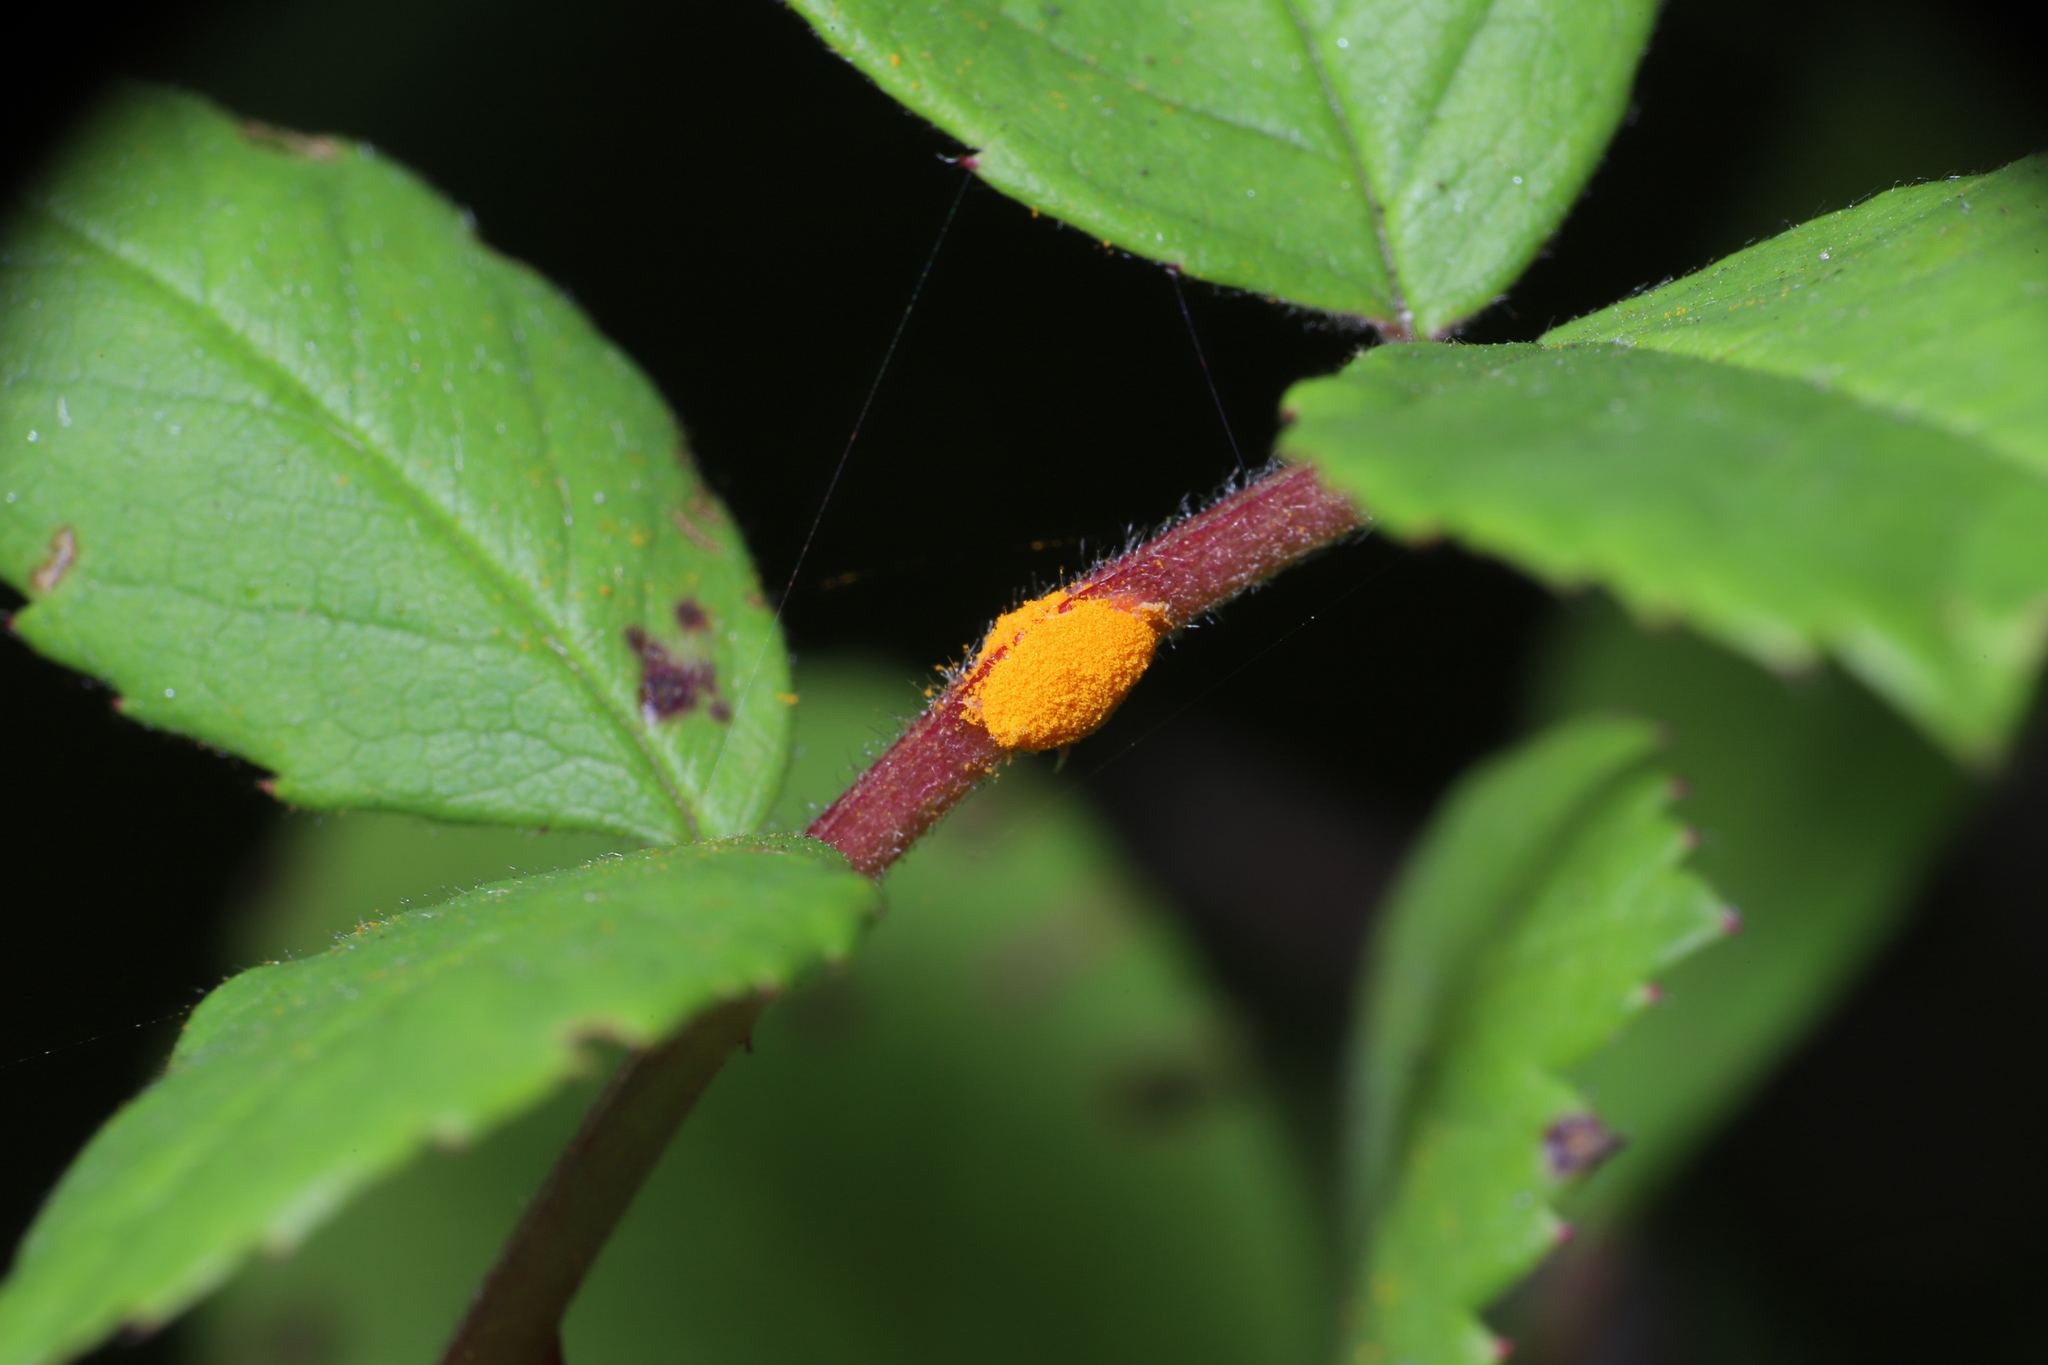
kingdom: Fungi
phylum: Basidiomycota
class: Pucciniomycetes
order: Pucciniales
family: Phragmidiaceae
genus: Phragmidium
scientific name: Phragmidium rosae-multiflorae
